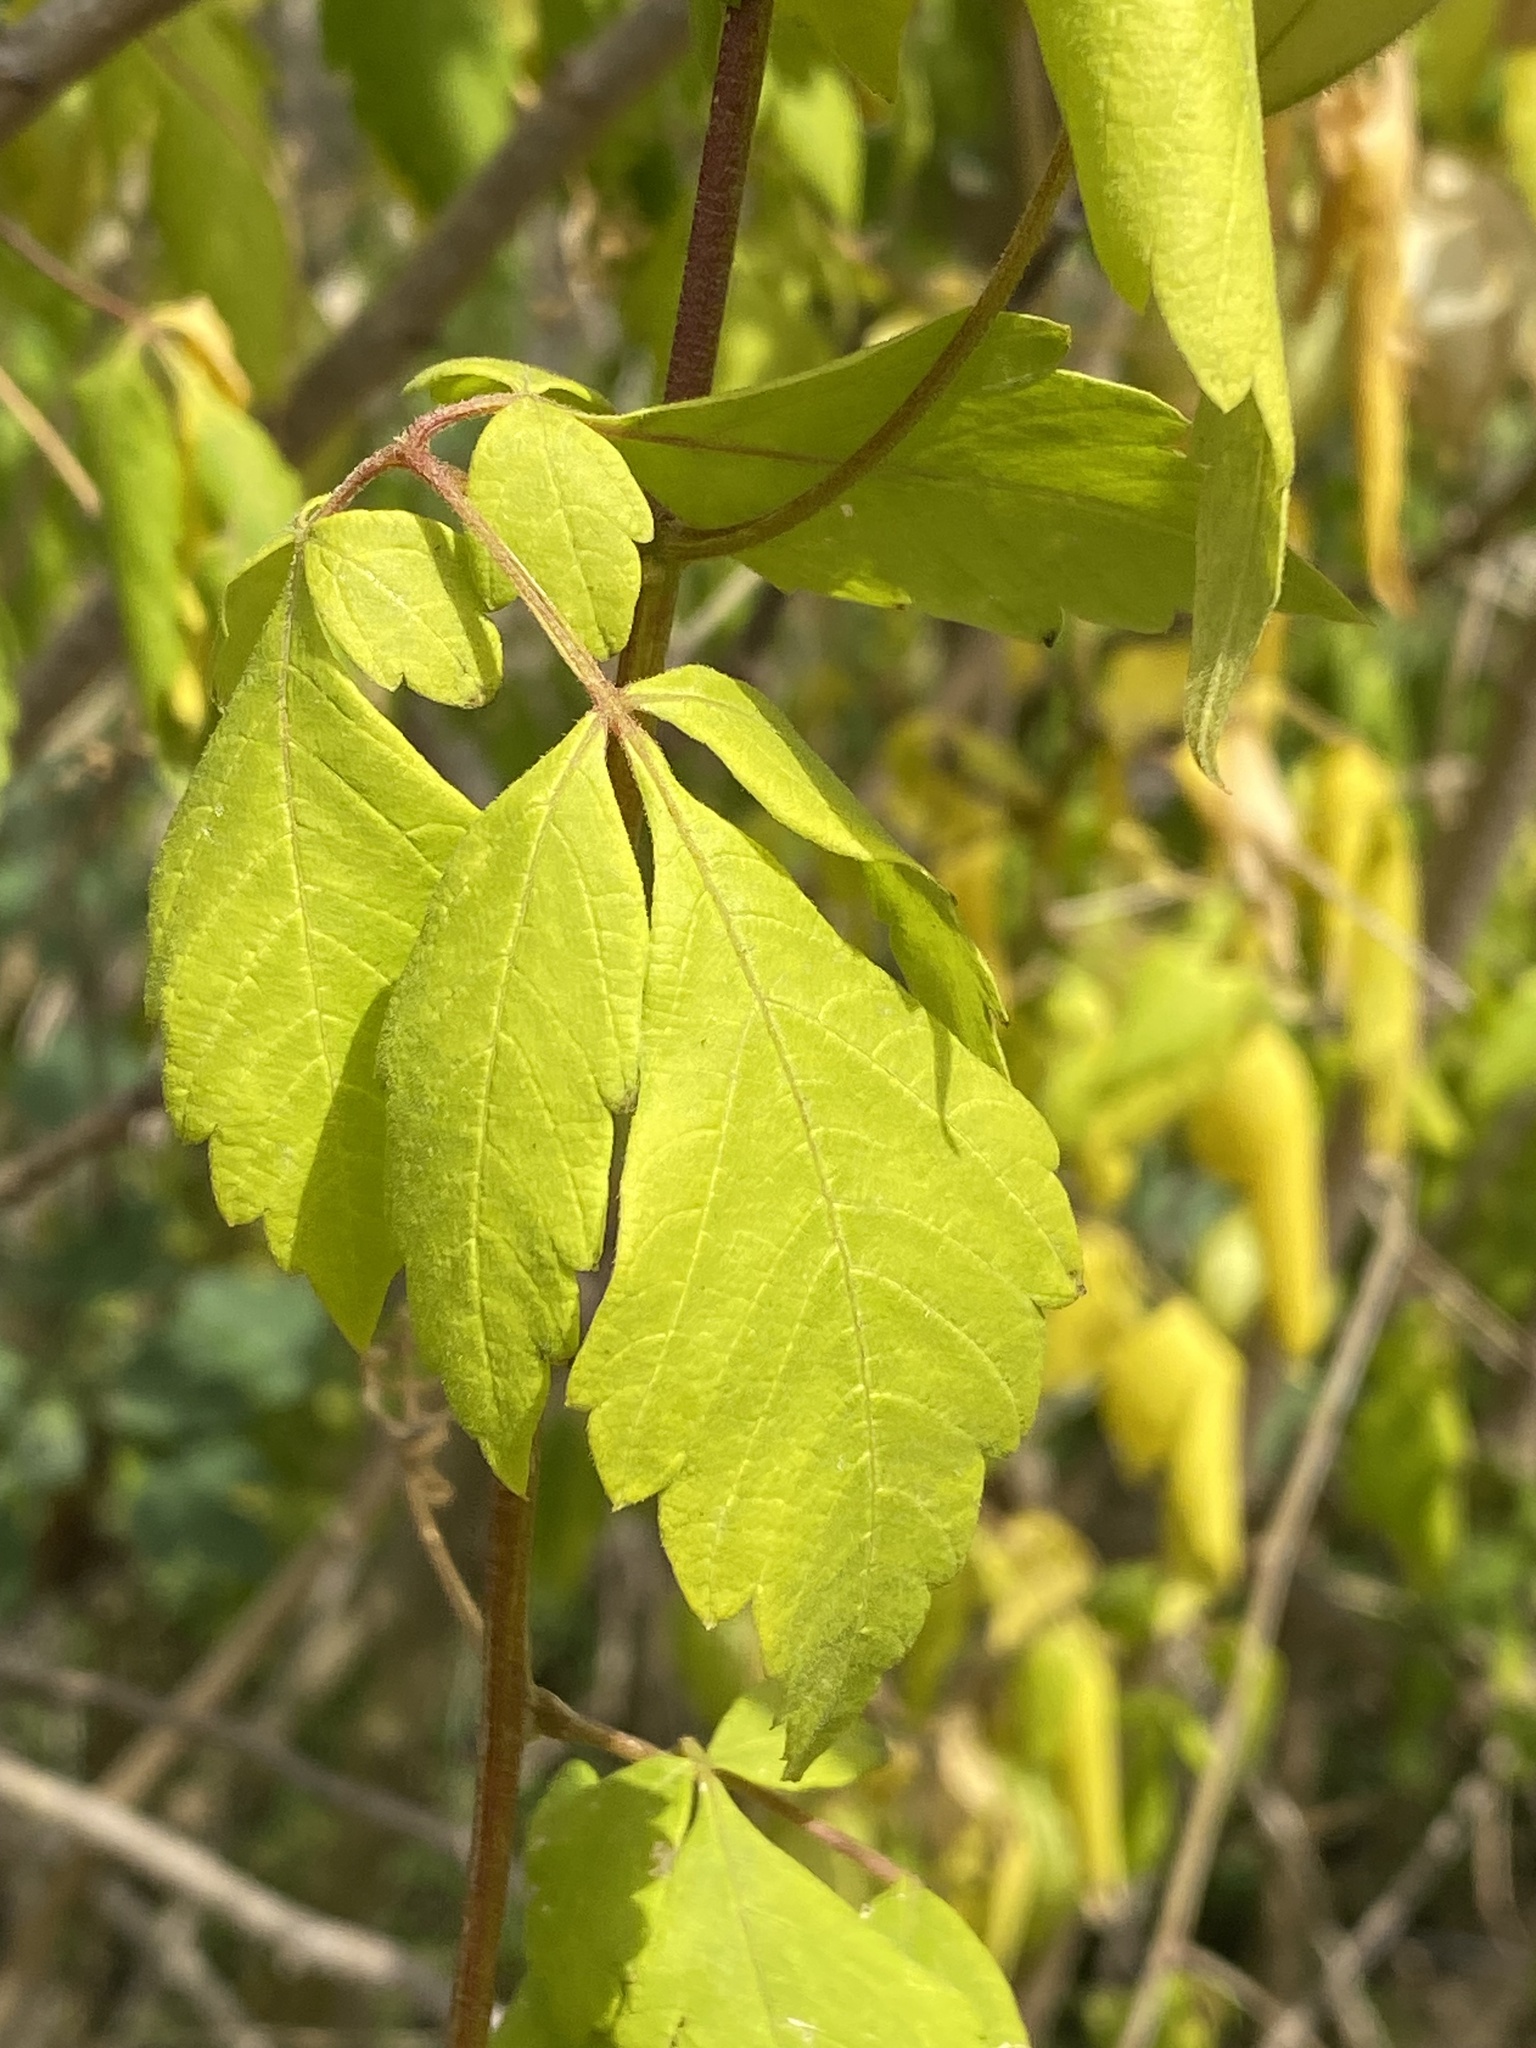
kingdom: Plantae
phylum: Tracheophyta
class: Magnoliopsida
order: Sapindales
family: Sapindaceae
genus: Cardiospermum
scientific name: Cardiospermum grandiflorum
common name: Balloon vine
